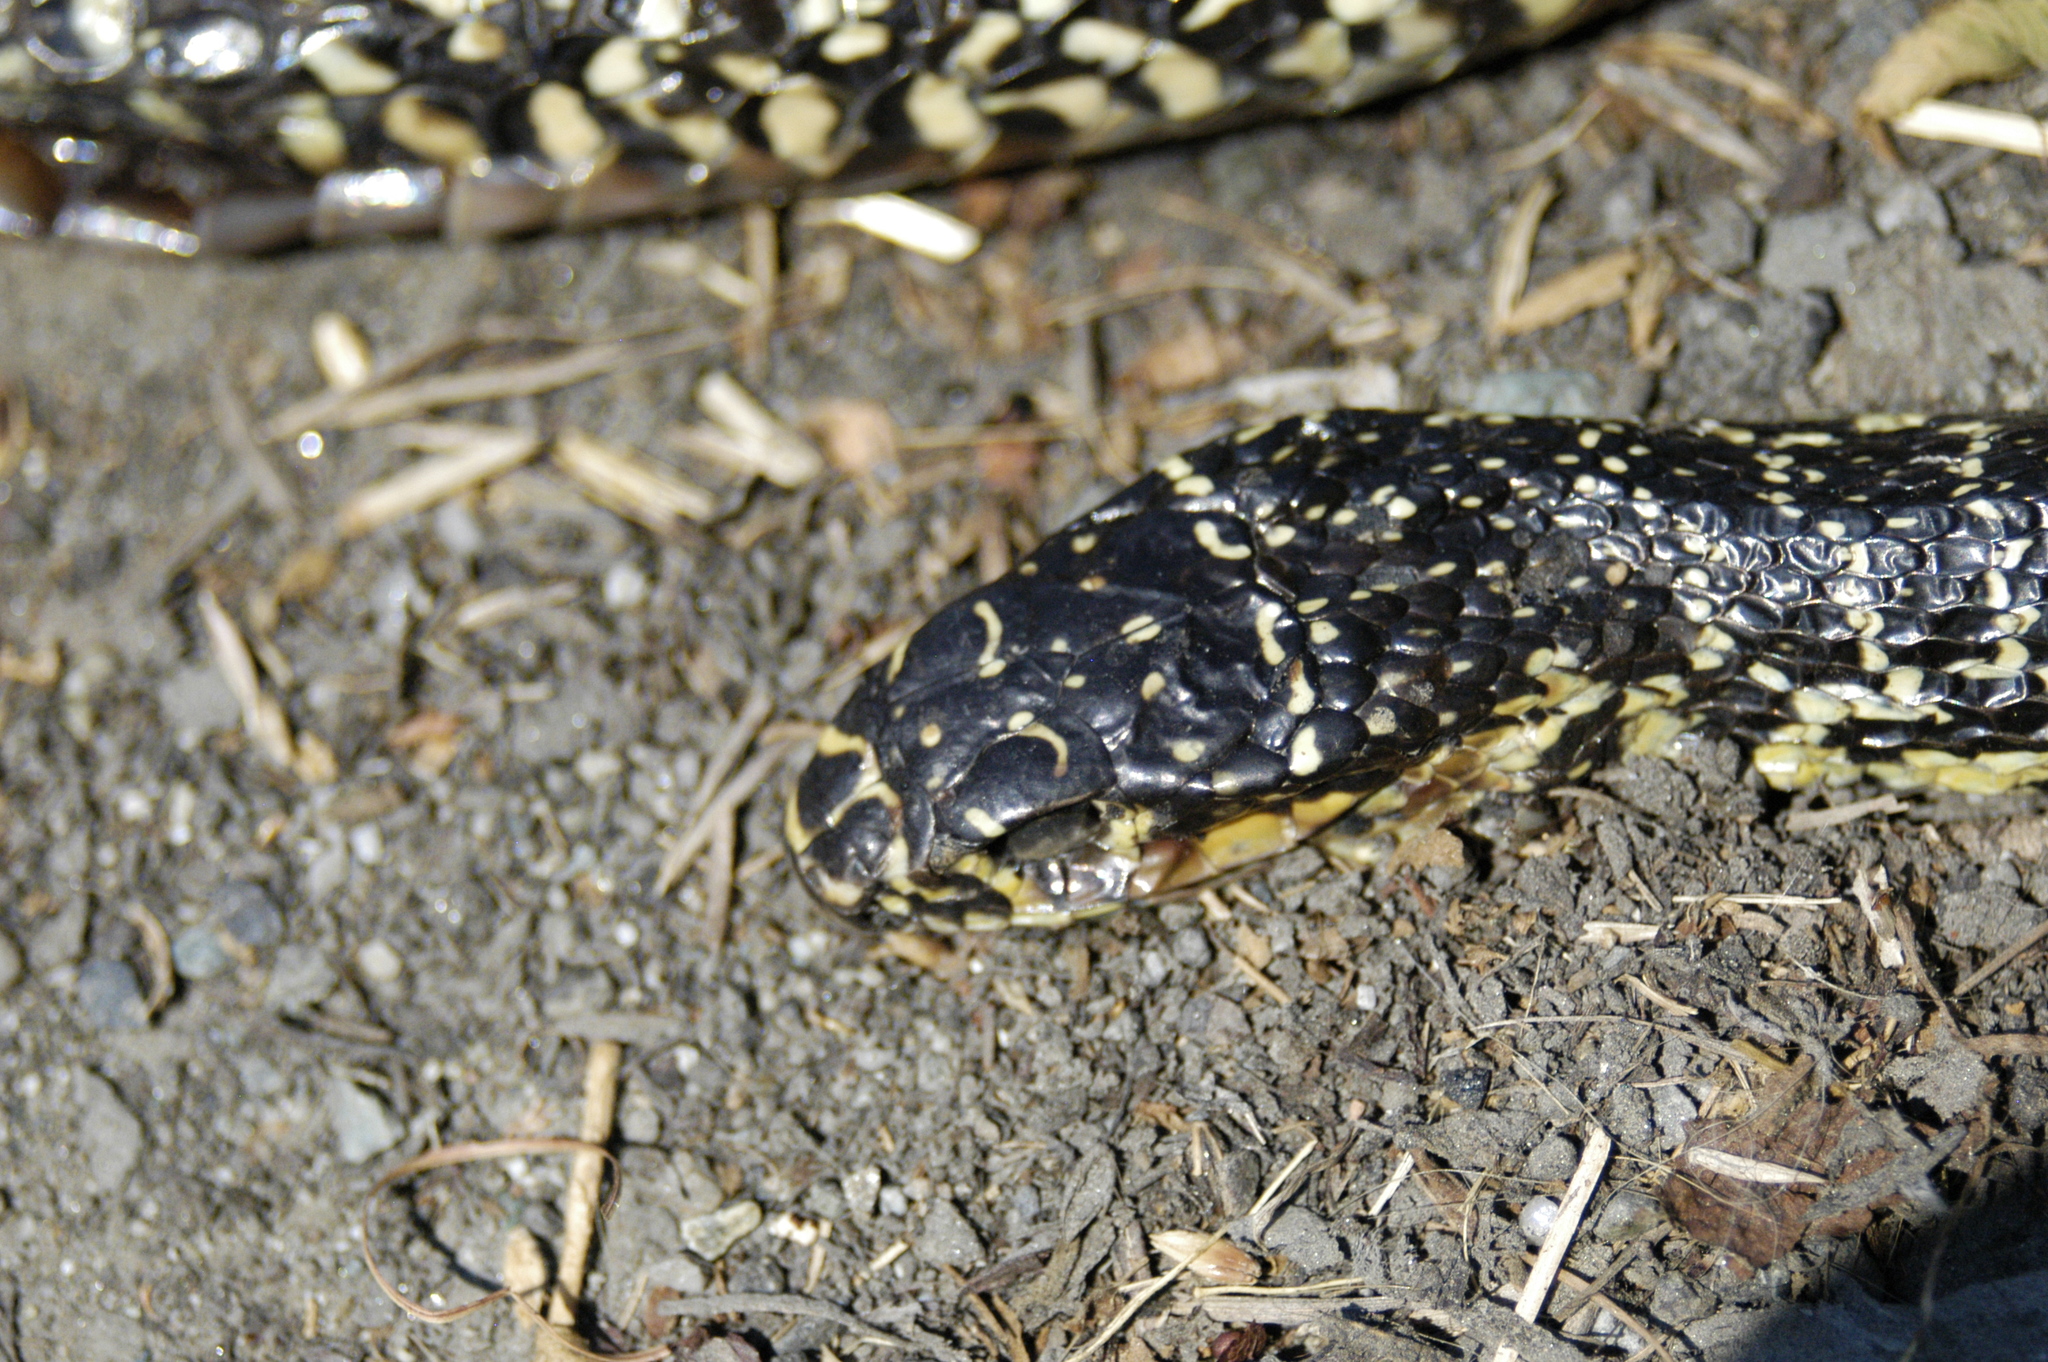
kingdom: Animalia
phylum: Chordata
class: Squamata
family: Colubridae
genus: Hierophis
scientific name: Hierophis viridiflavus
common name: Green whip snake
